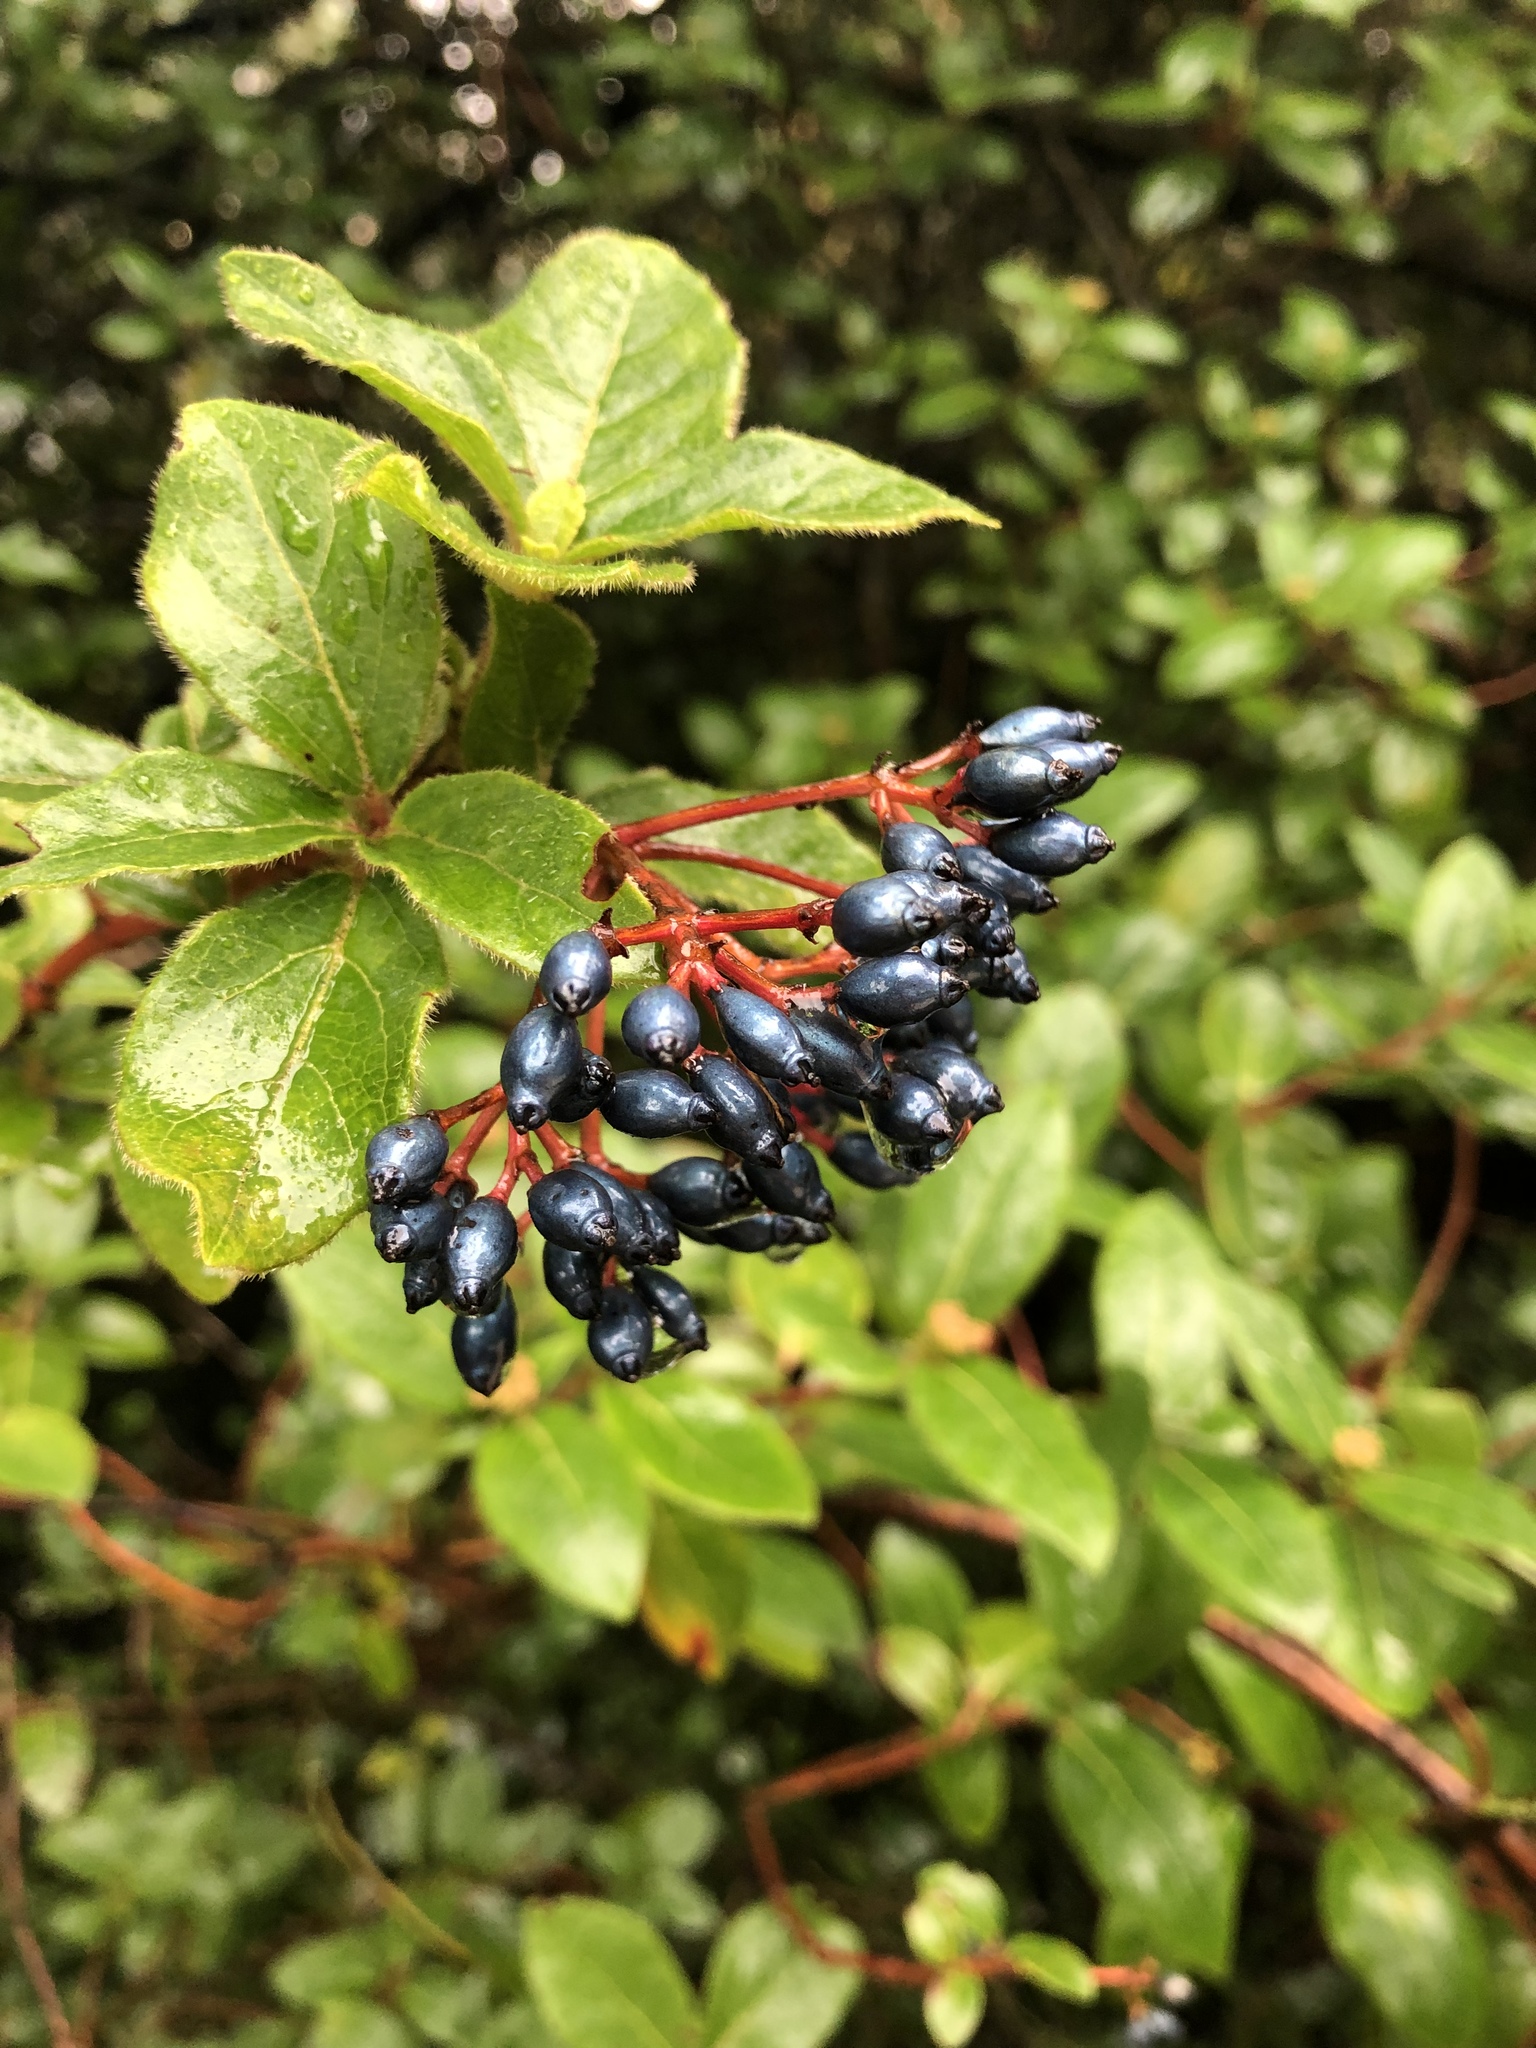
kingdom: Plantae
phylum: Tracheophyta
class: Magnoliopsida
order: Dipsacales
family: Viburnaceae
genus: Viburnum
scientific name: Viburnum tinus
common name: Laurustinus
